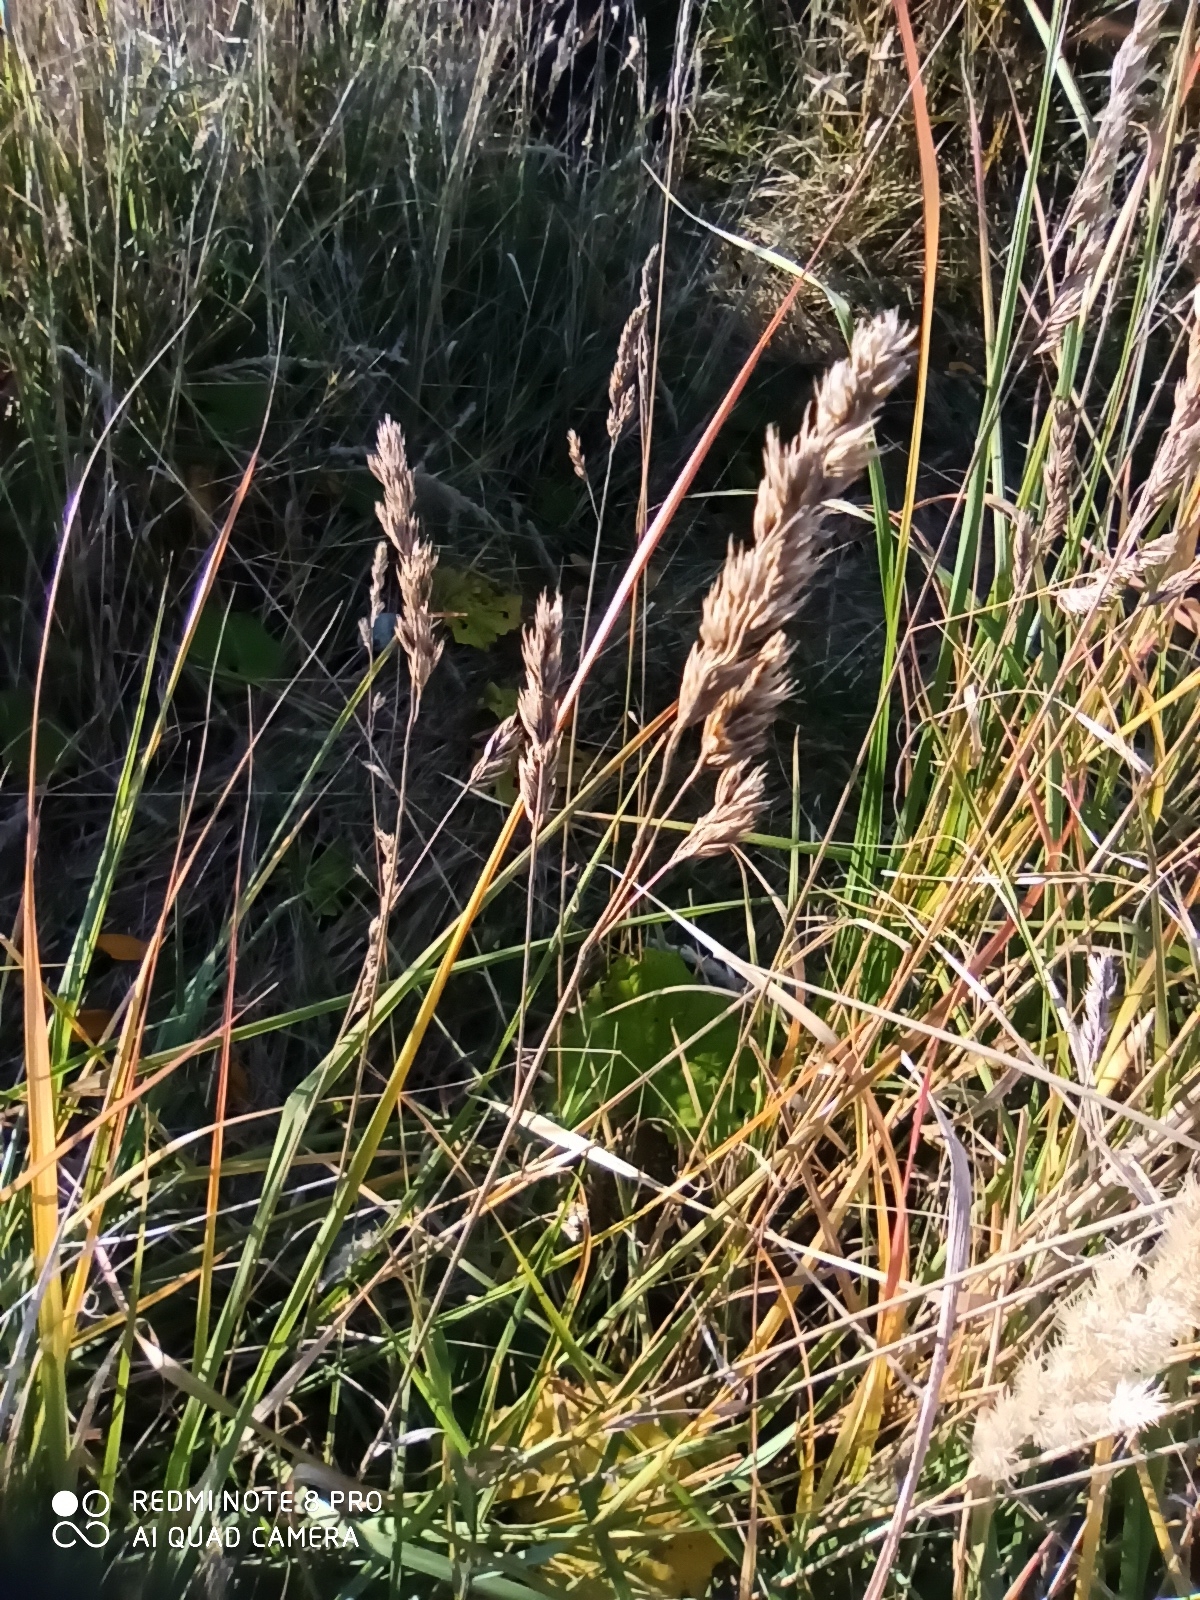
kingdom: Plantae
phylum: Tracheophyta
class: Liliopsida
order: Poales
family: Poaceae
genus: Dactylis
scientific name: Dactylis glomerata
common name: Orchardgrass
